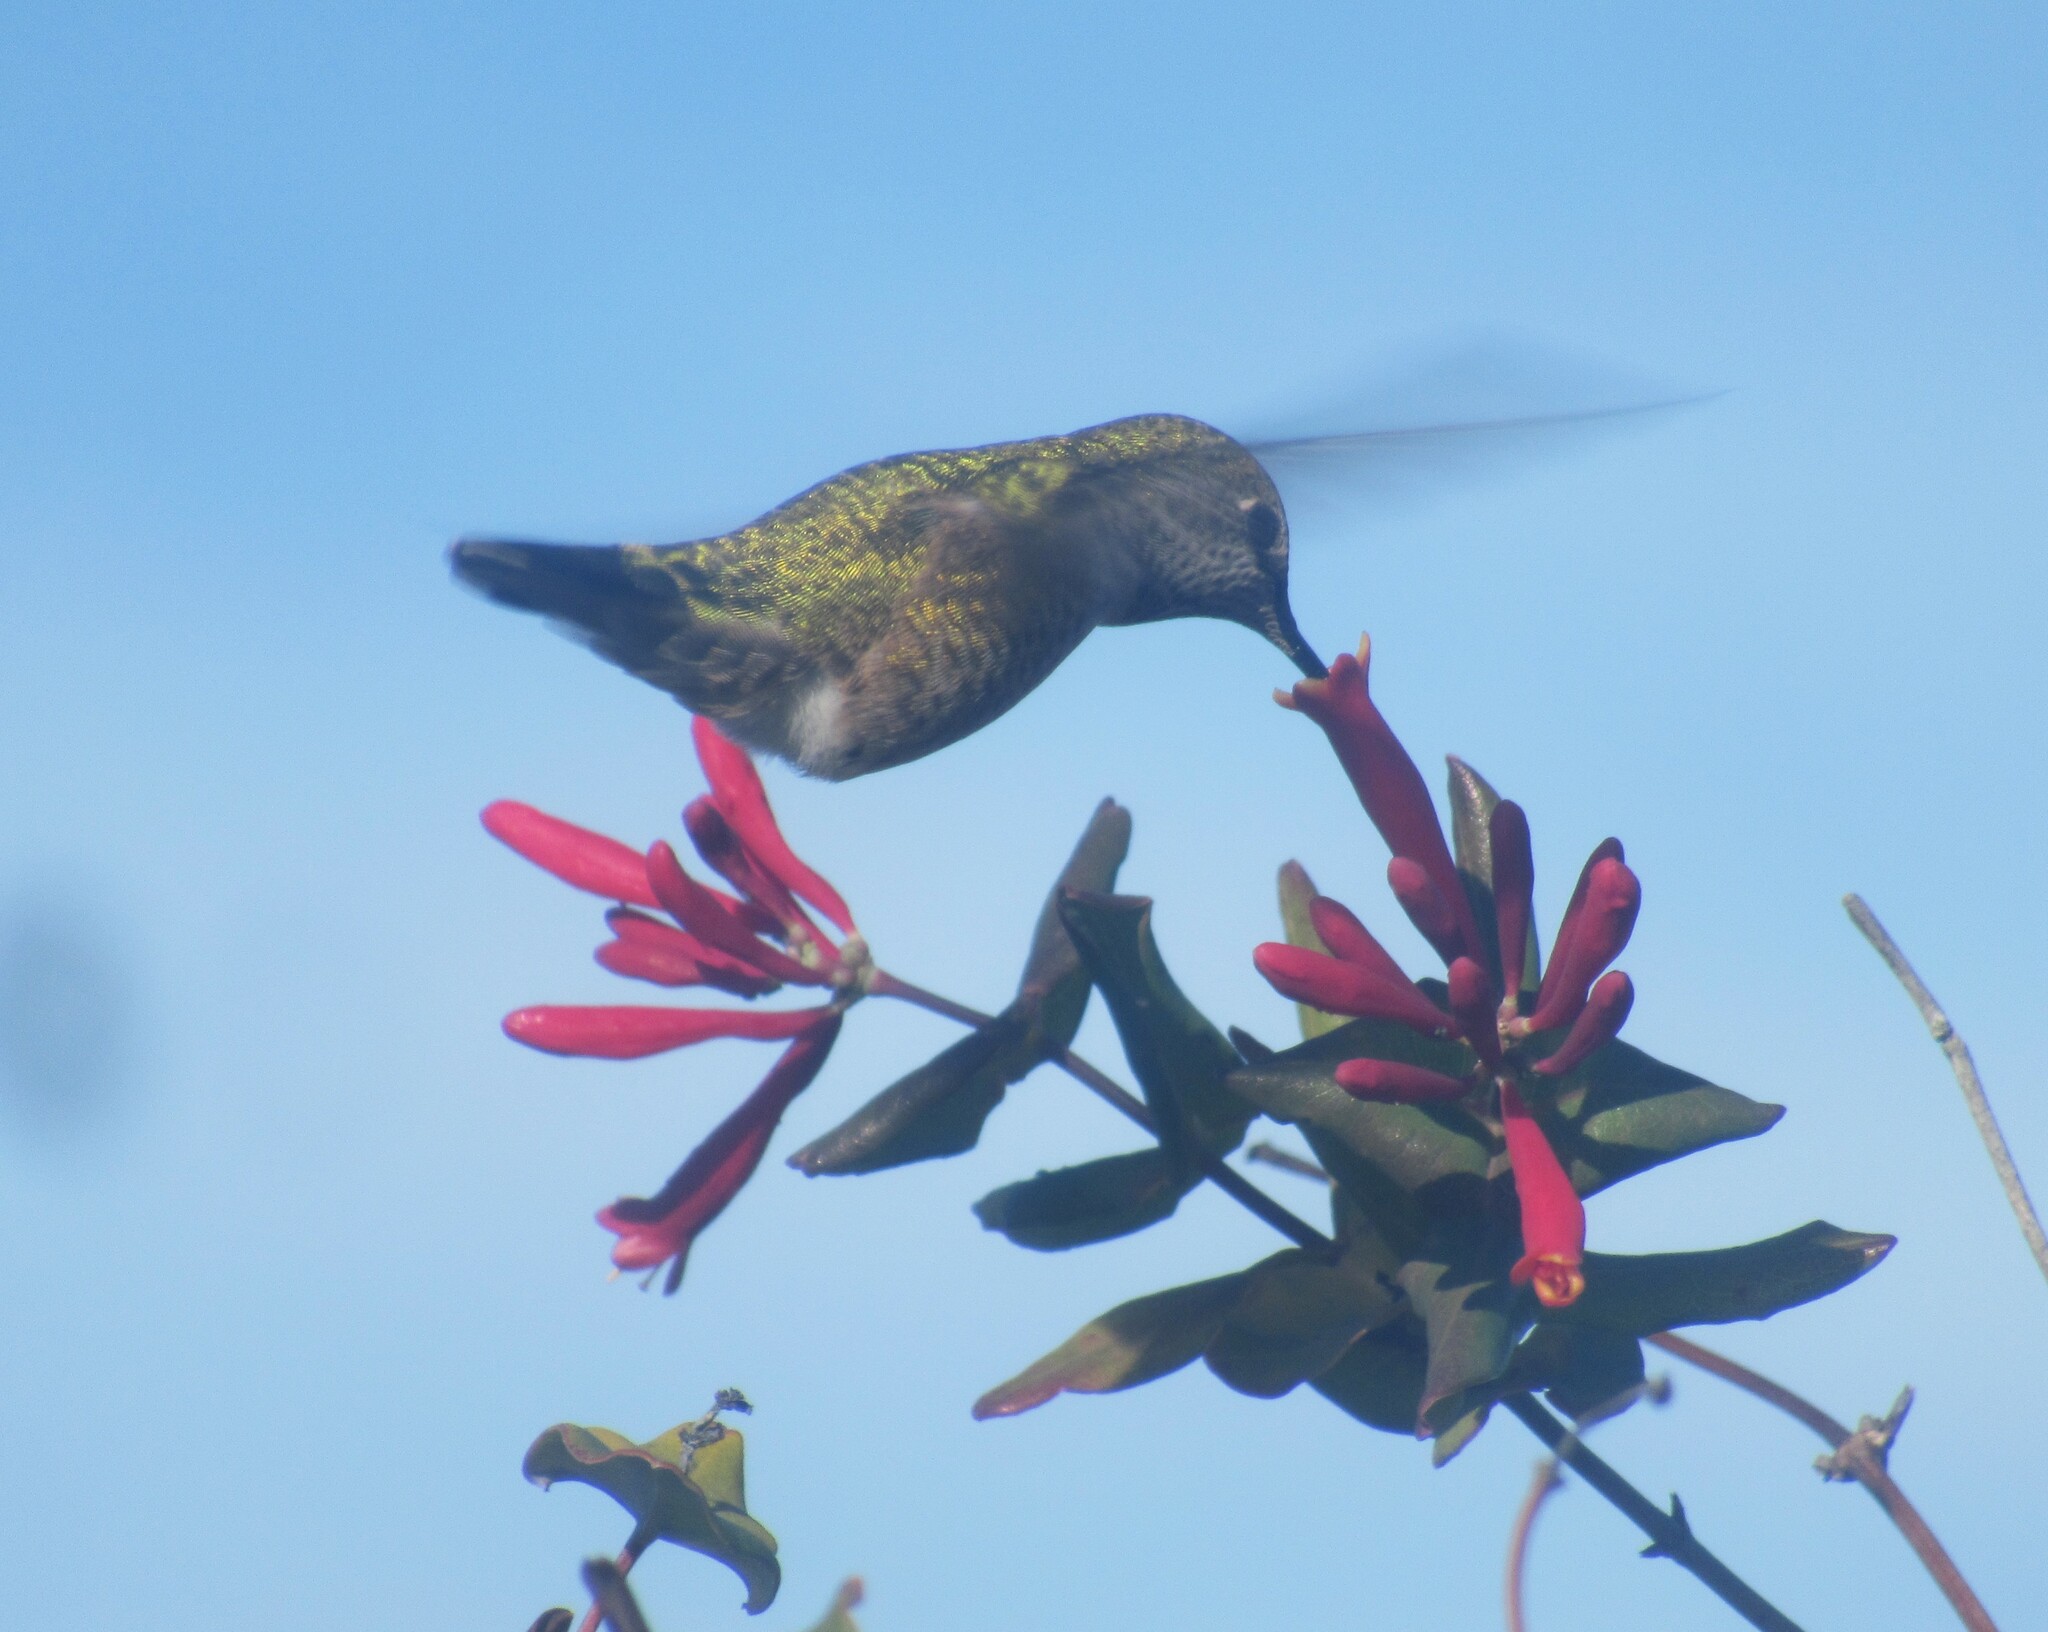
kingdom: Animalia
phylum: Chordata
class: Aves
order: Apodiformes
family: Trochilidae
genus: Calypte
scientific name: Calypte anna
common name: Anna's hummingbird
